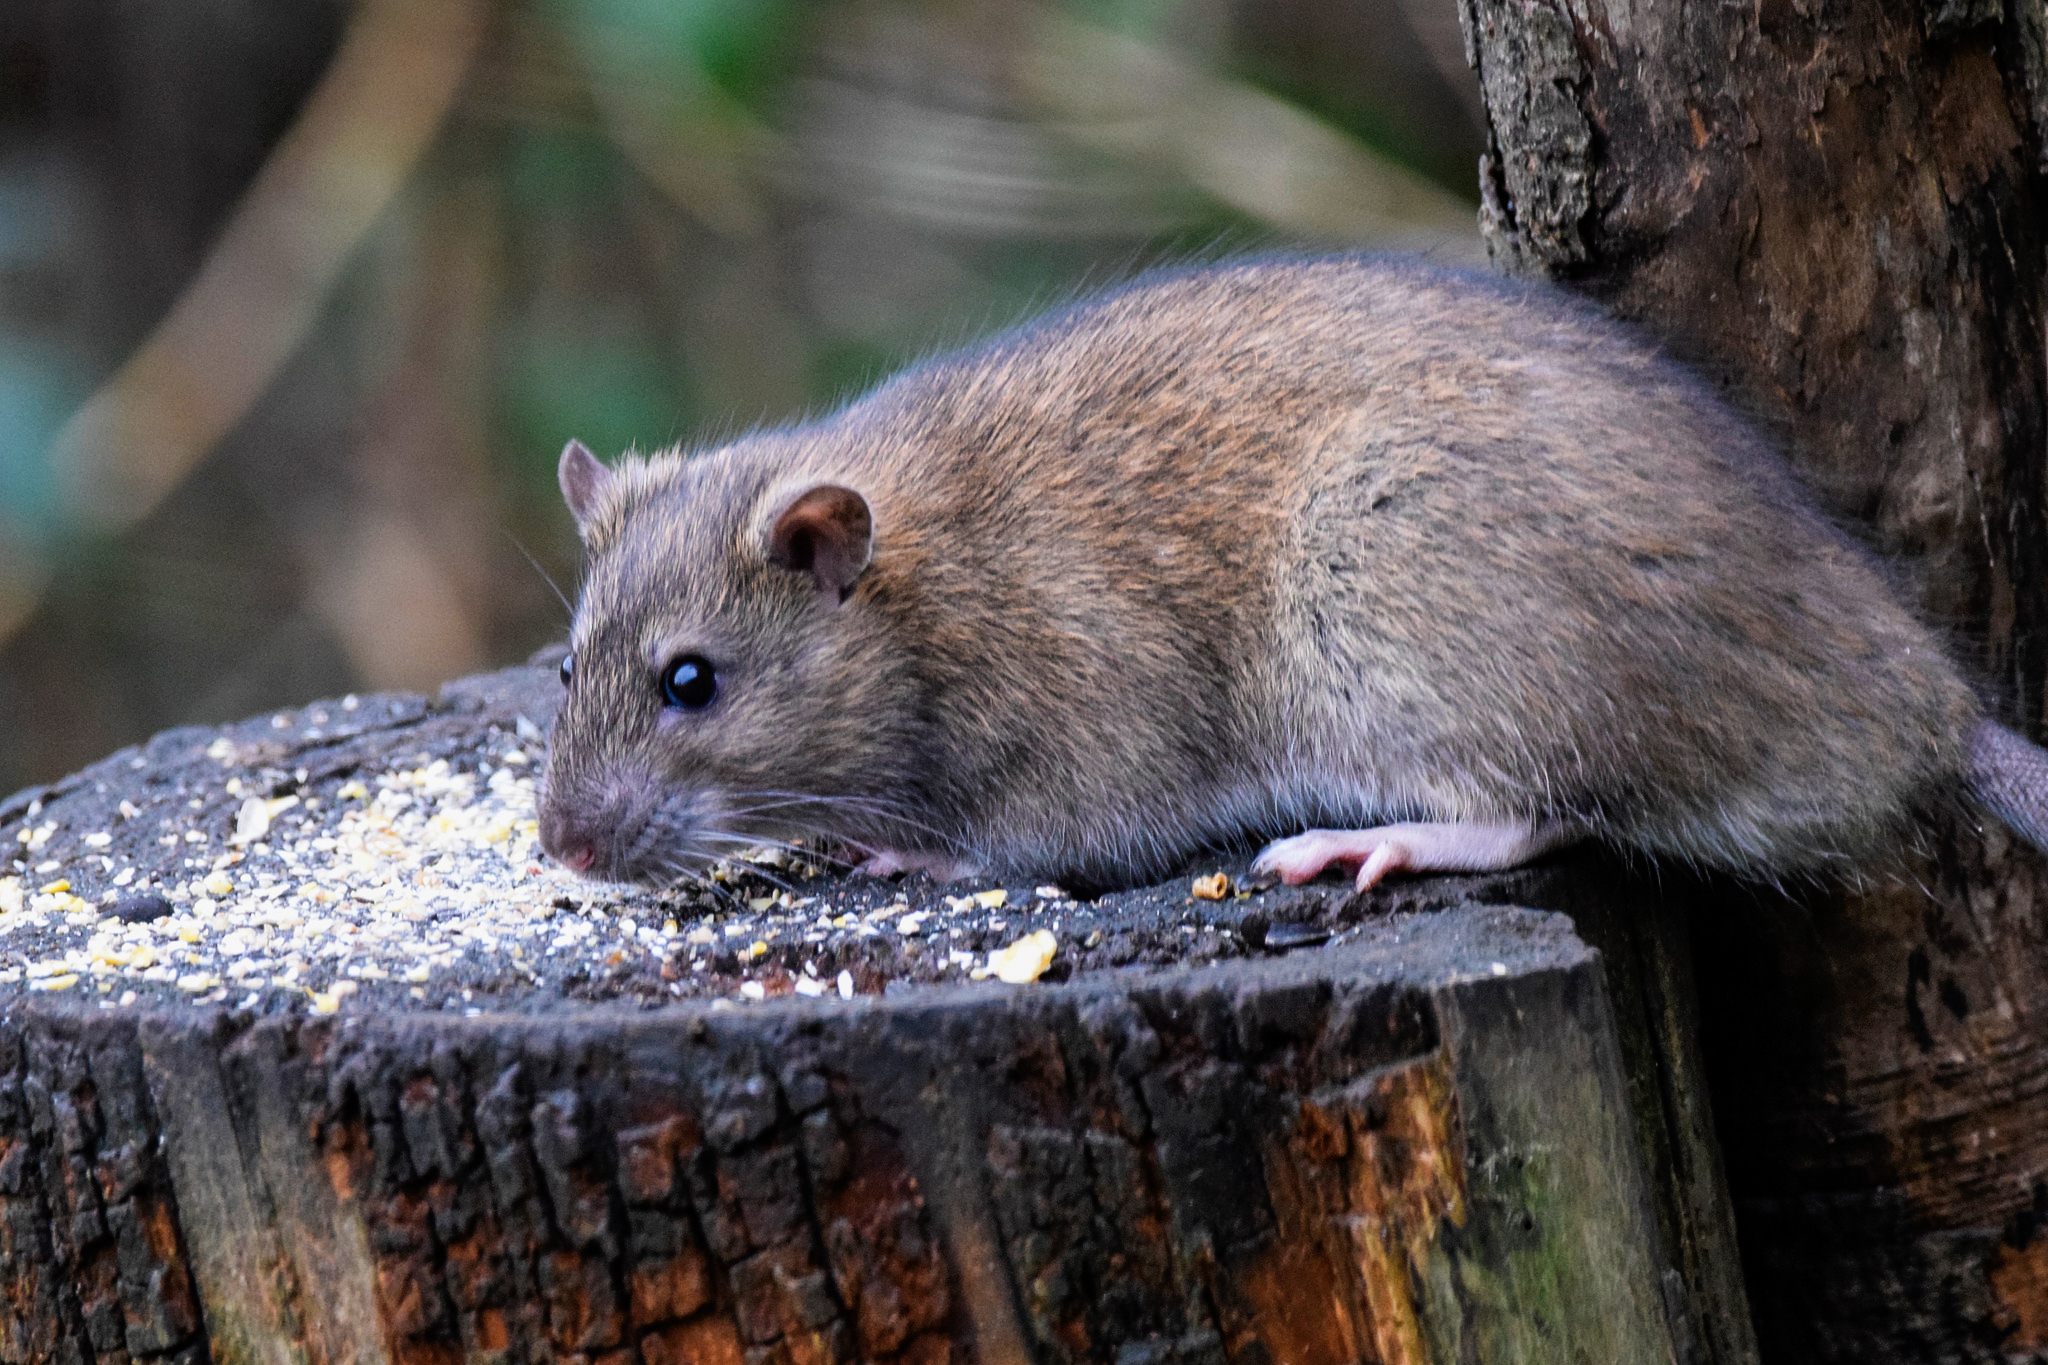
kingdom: Animalia
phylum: Chordata
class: Mammalia
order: Rodentia
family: Muridae
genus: Rattus
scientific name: Rattus norvegicus
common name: Brown rat
